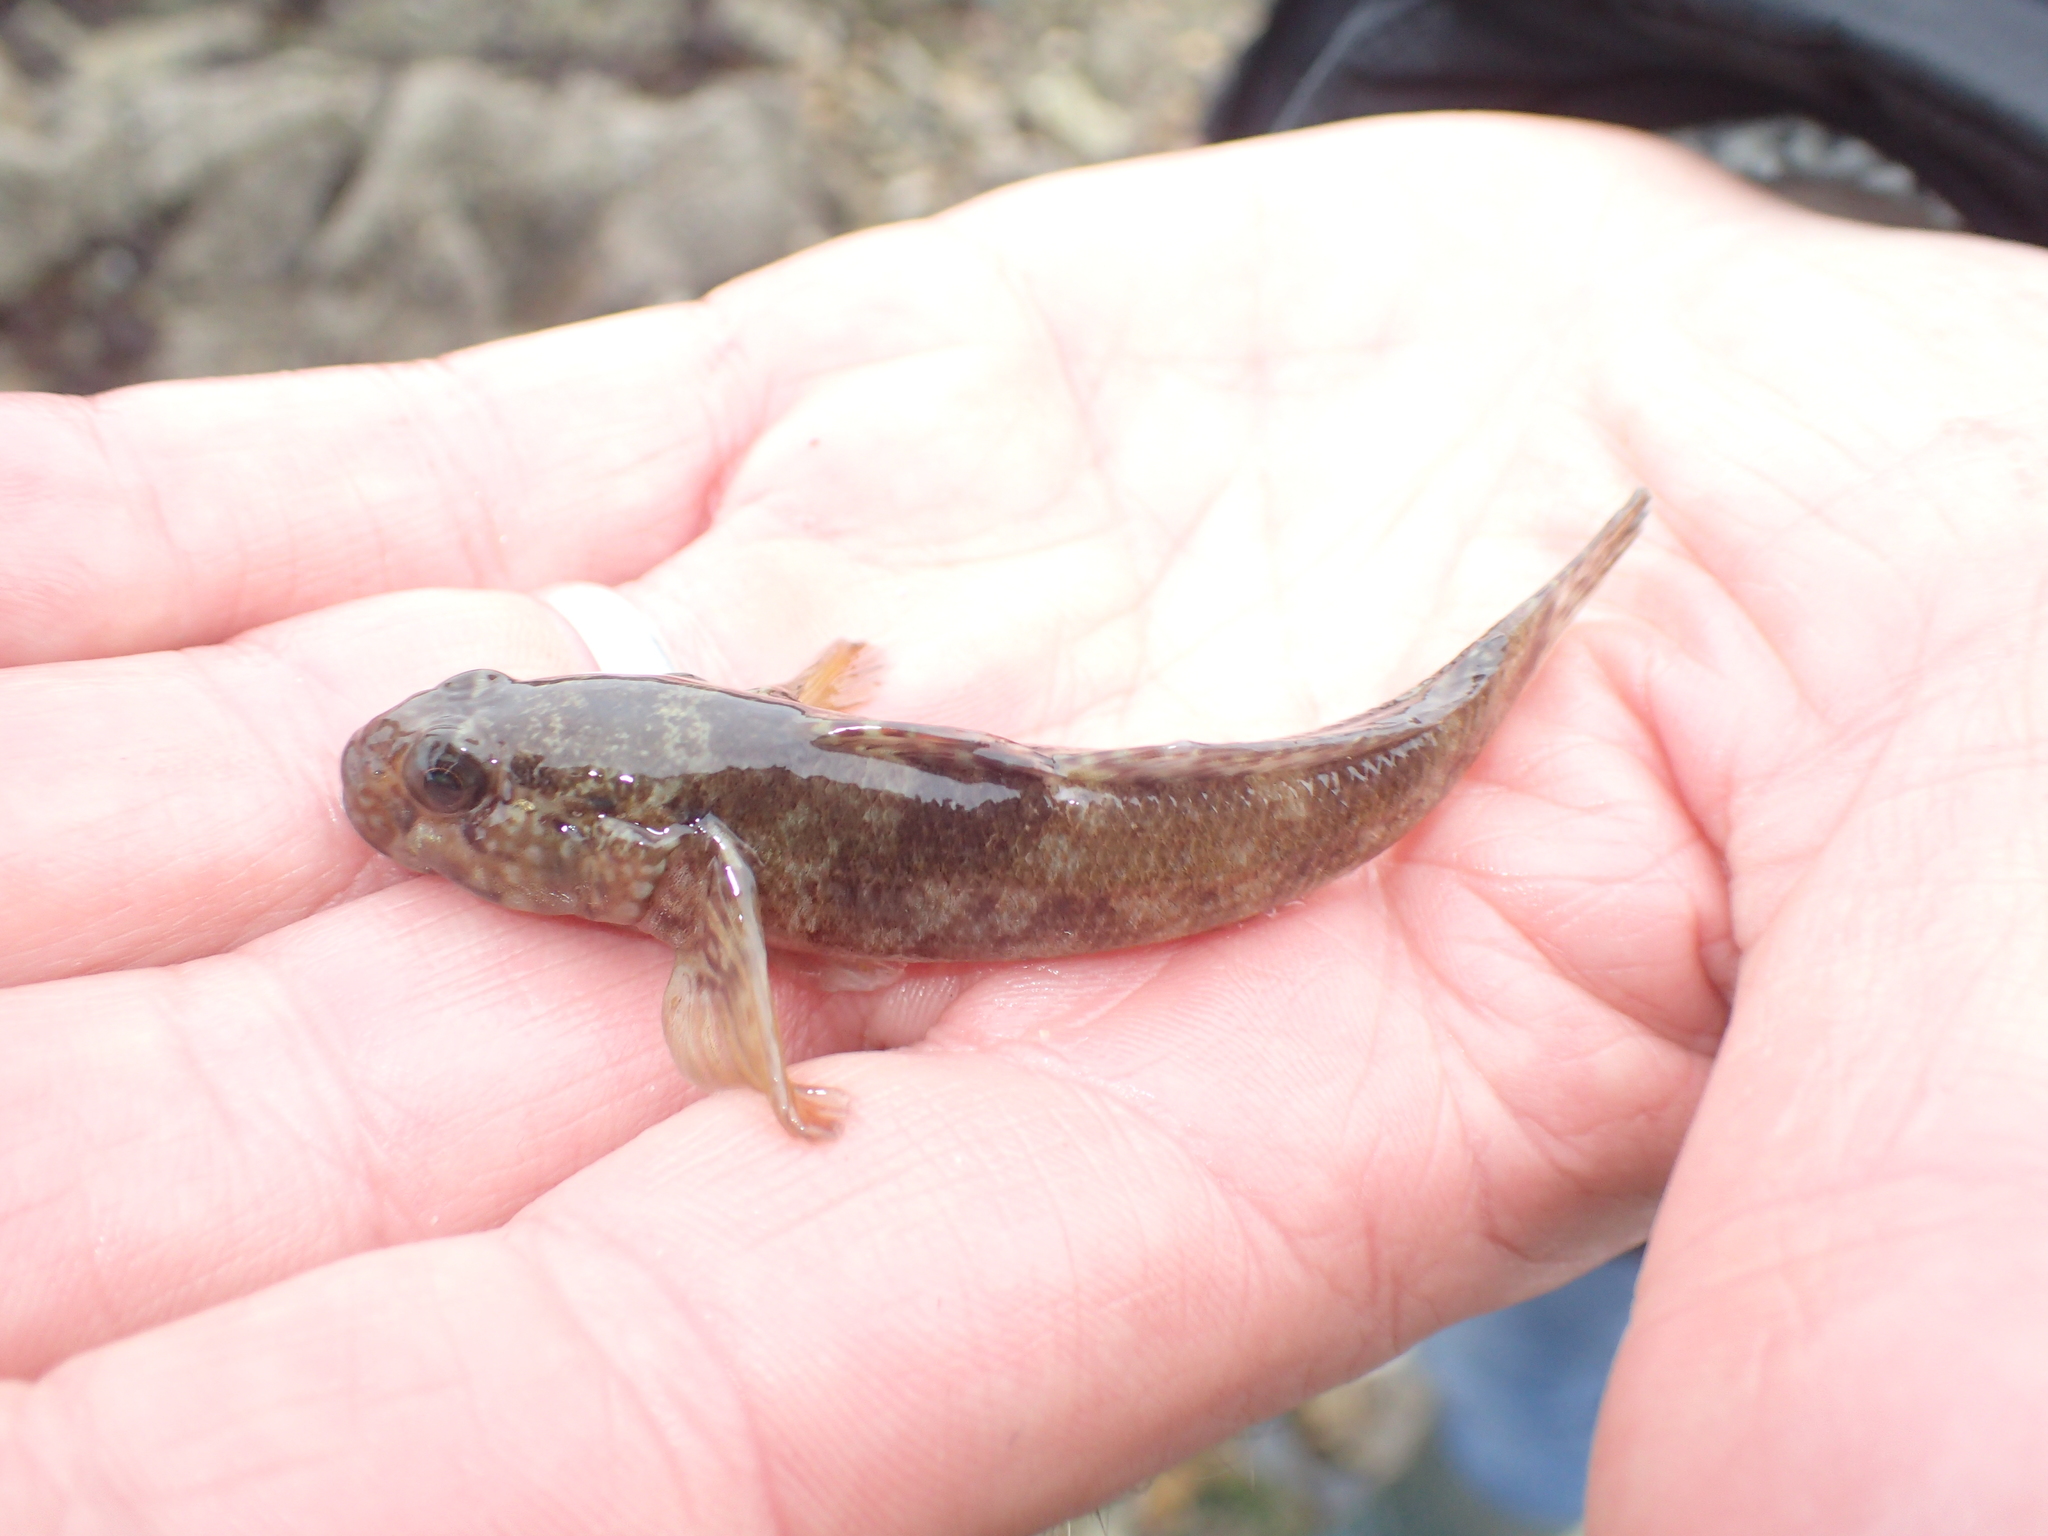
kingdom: Animalia
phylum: Chordata
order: Perciformes
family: Gobiidae
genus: Gobius
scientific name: Gobius paganellus
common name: Rock goby
